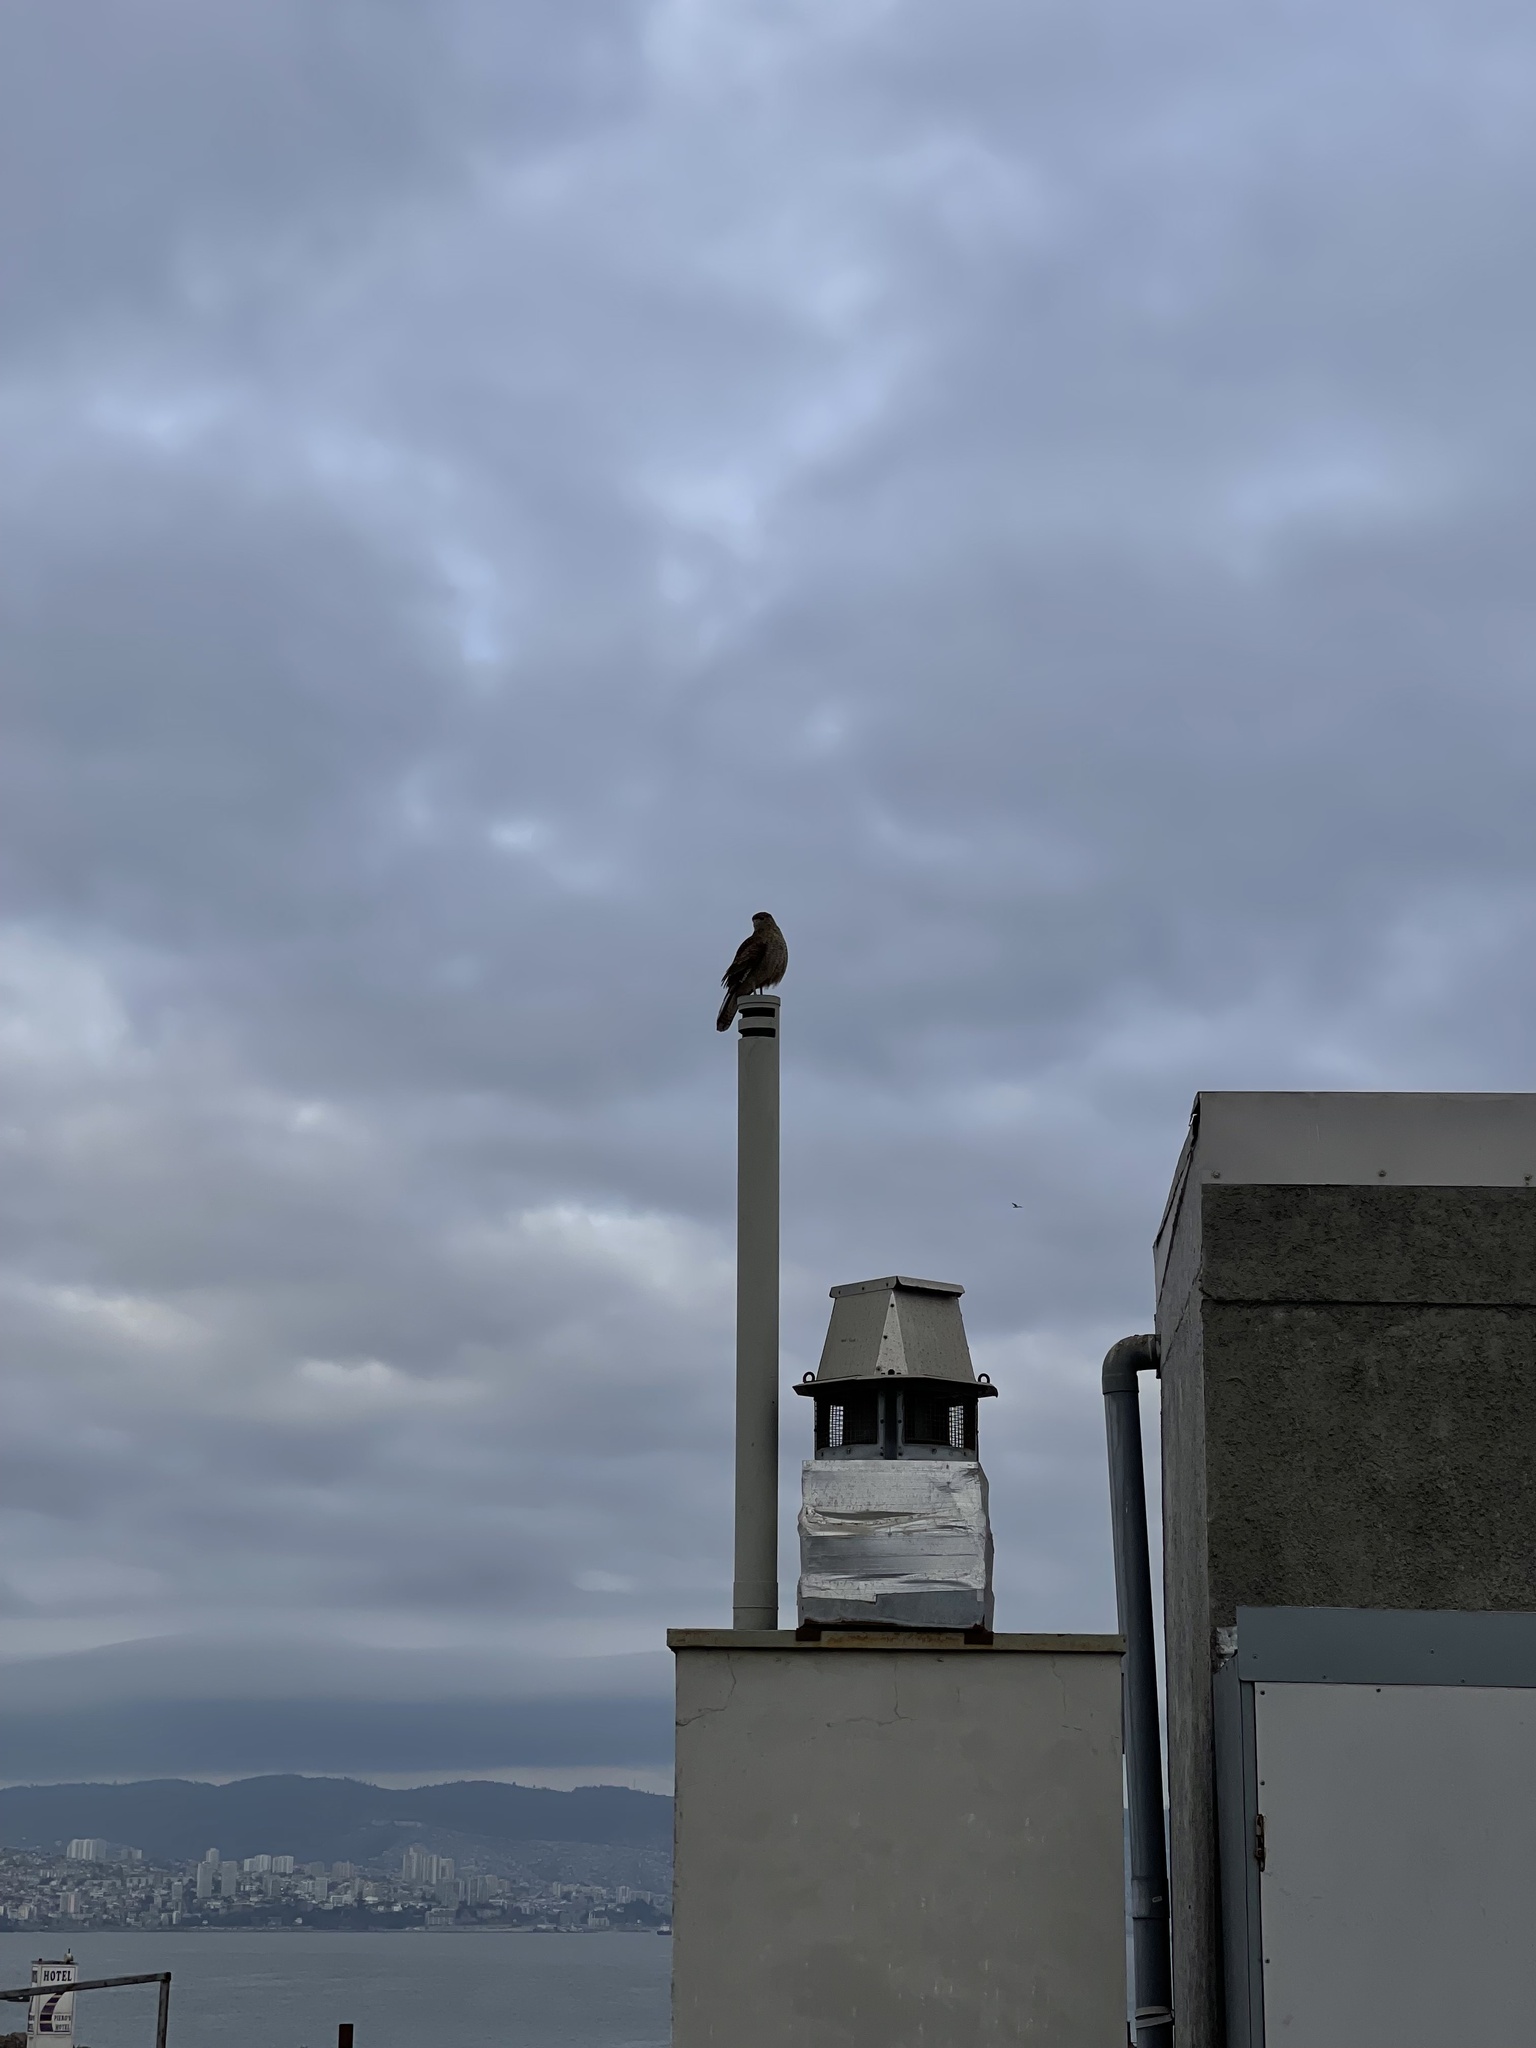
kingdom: Animalia
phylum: Chordata
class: Aves
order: Falconiformes
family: Falconidae
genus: Daptrius
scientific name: Daptrius
